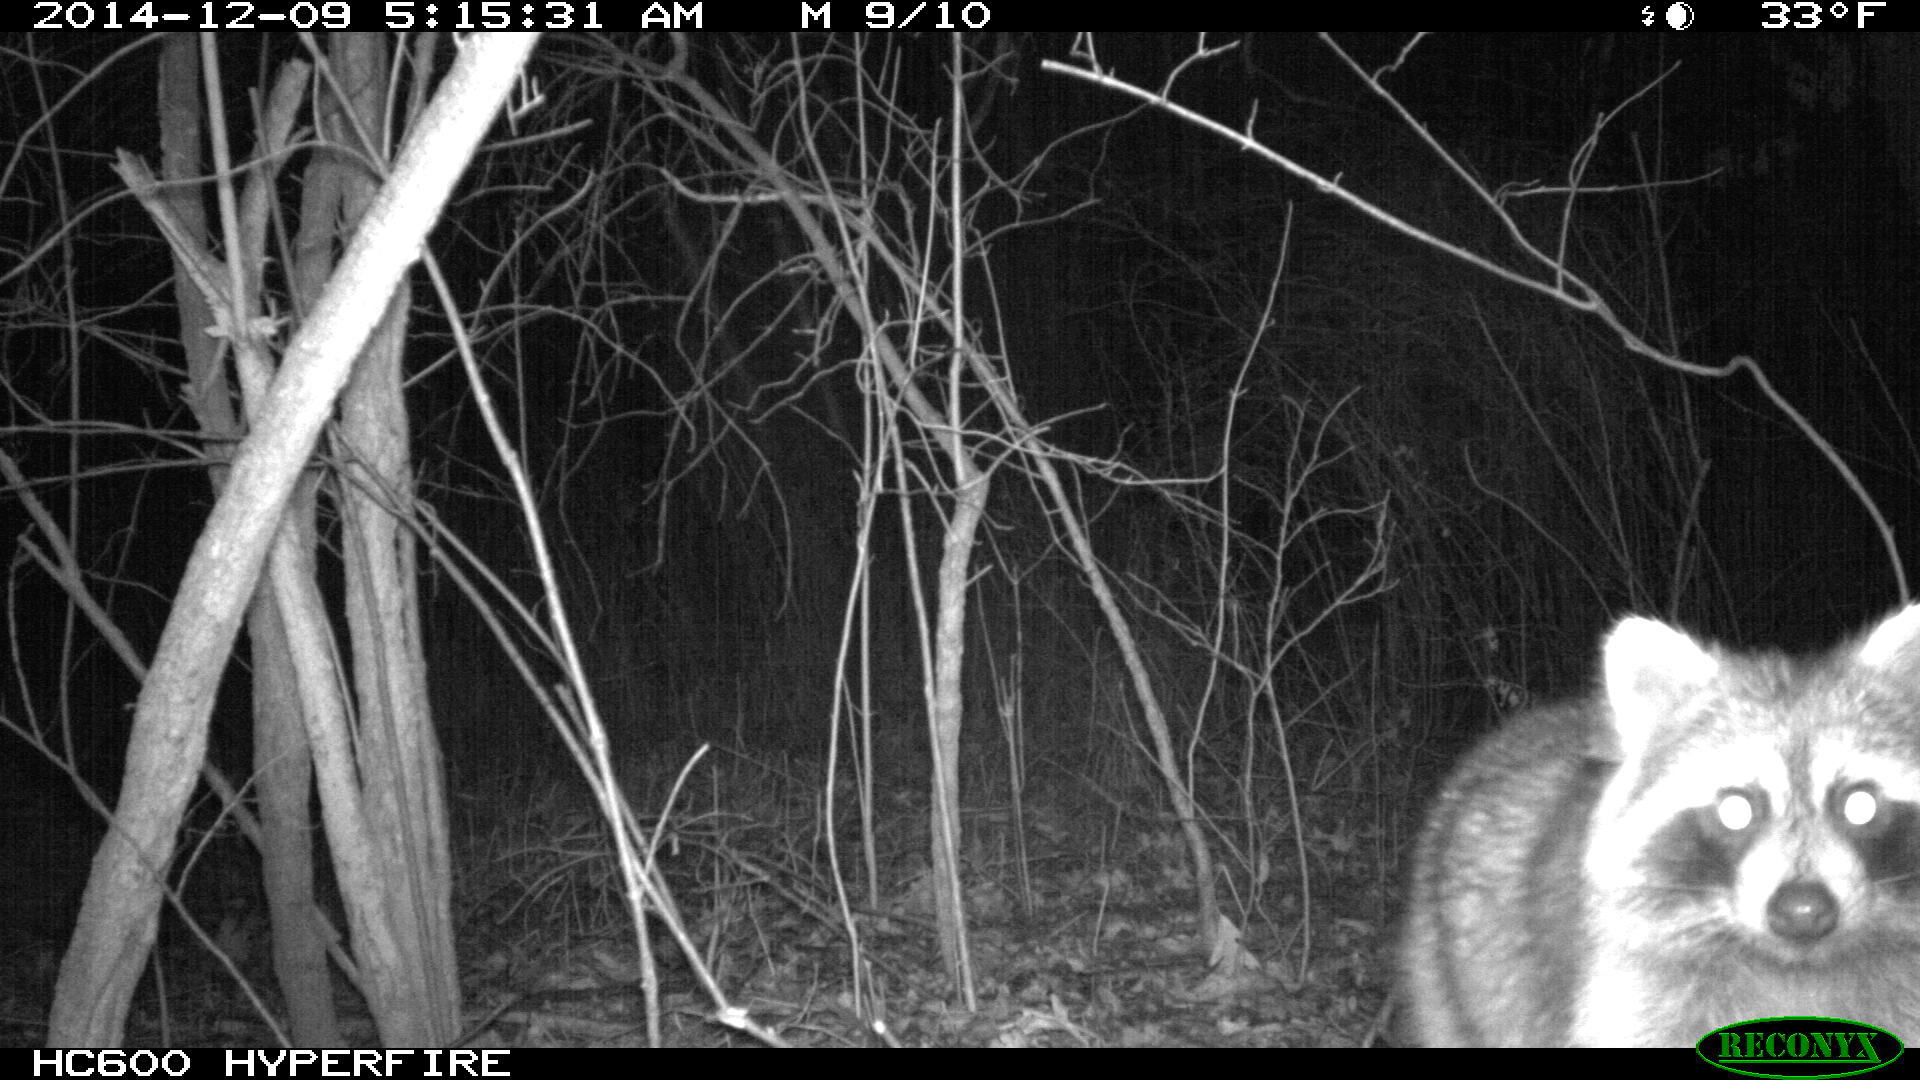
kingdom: Animalia
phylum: Chordata
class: Mammalia
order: Carnivora
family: Procyonidae
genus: Procyon
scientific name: Procyon lotor
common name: Raccoon
